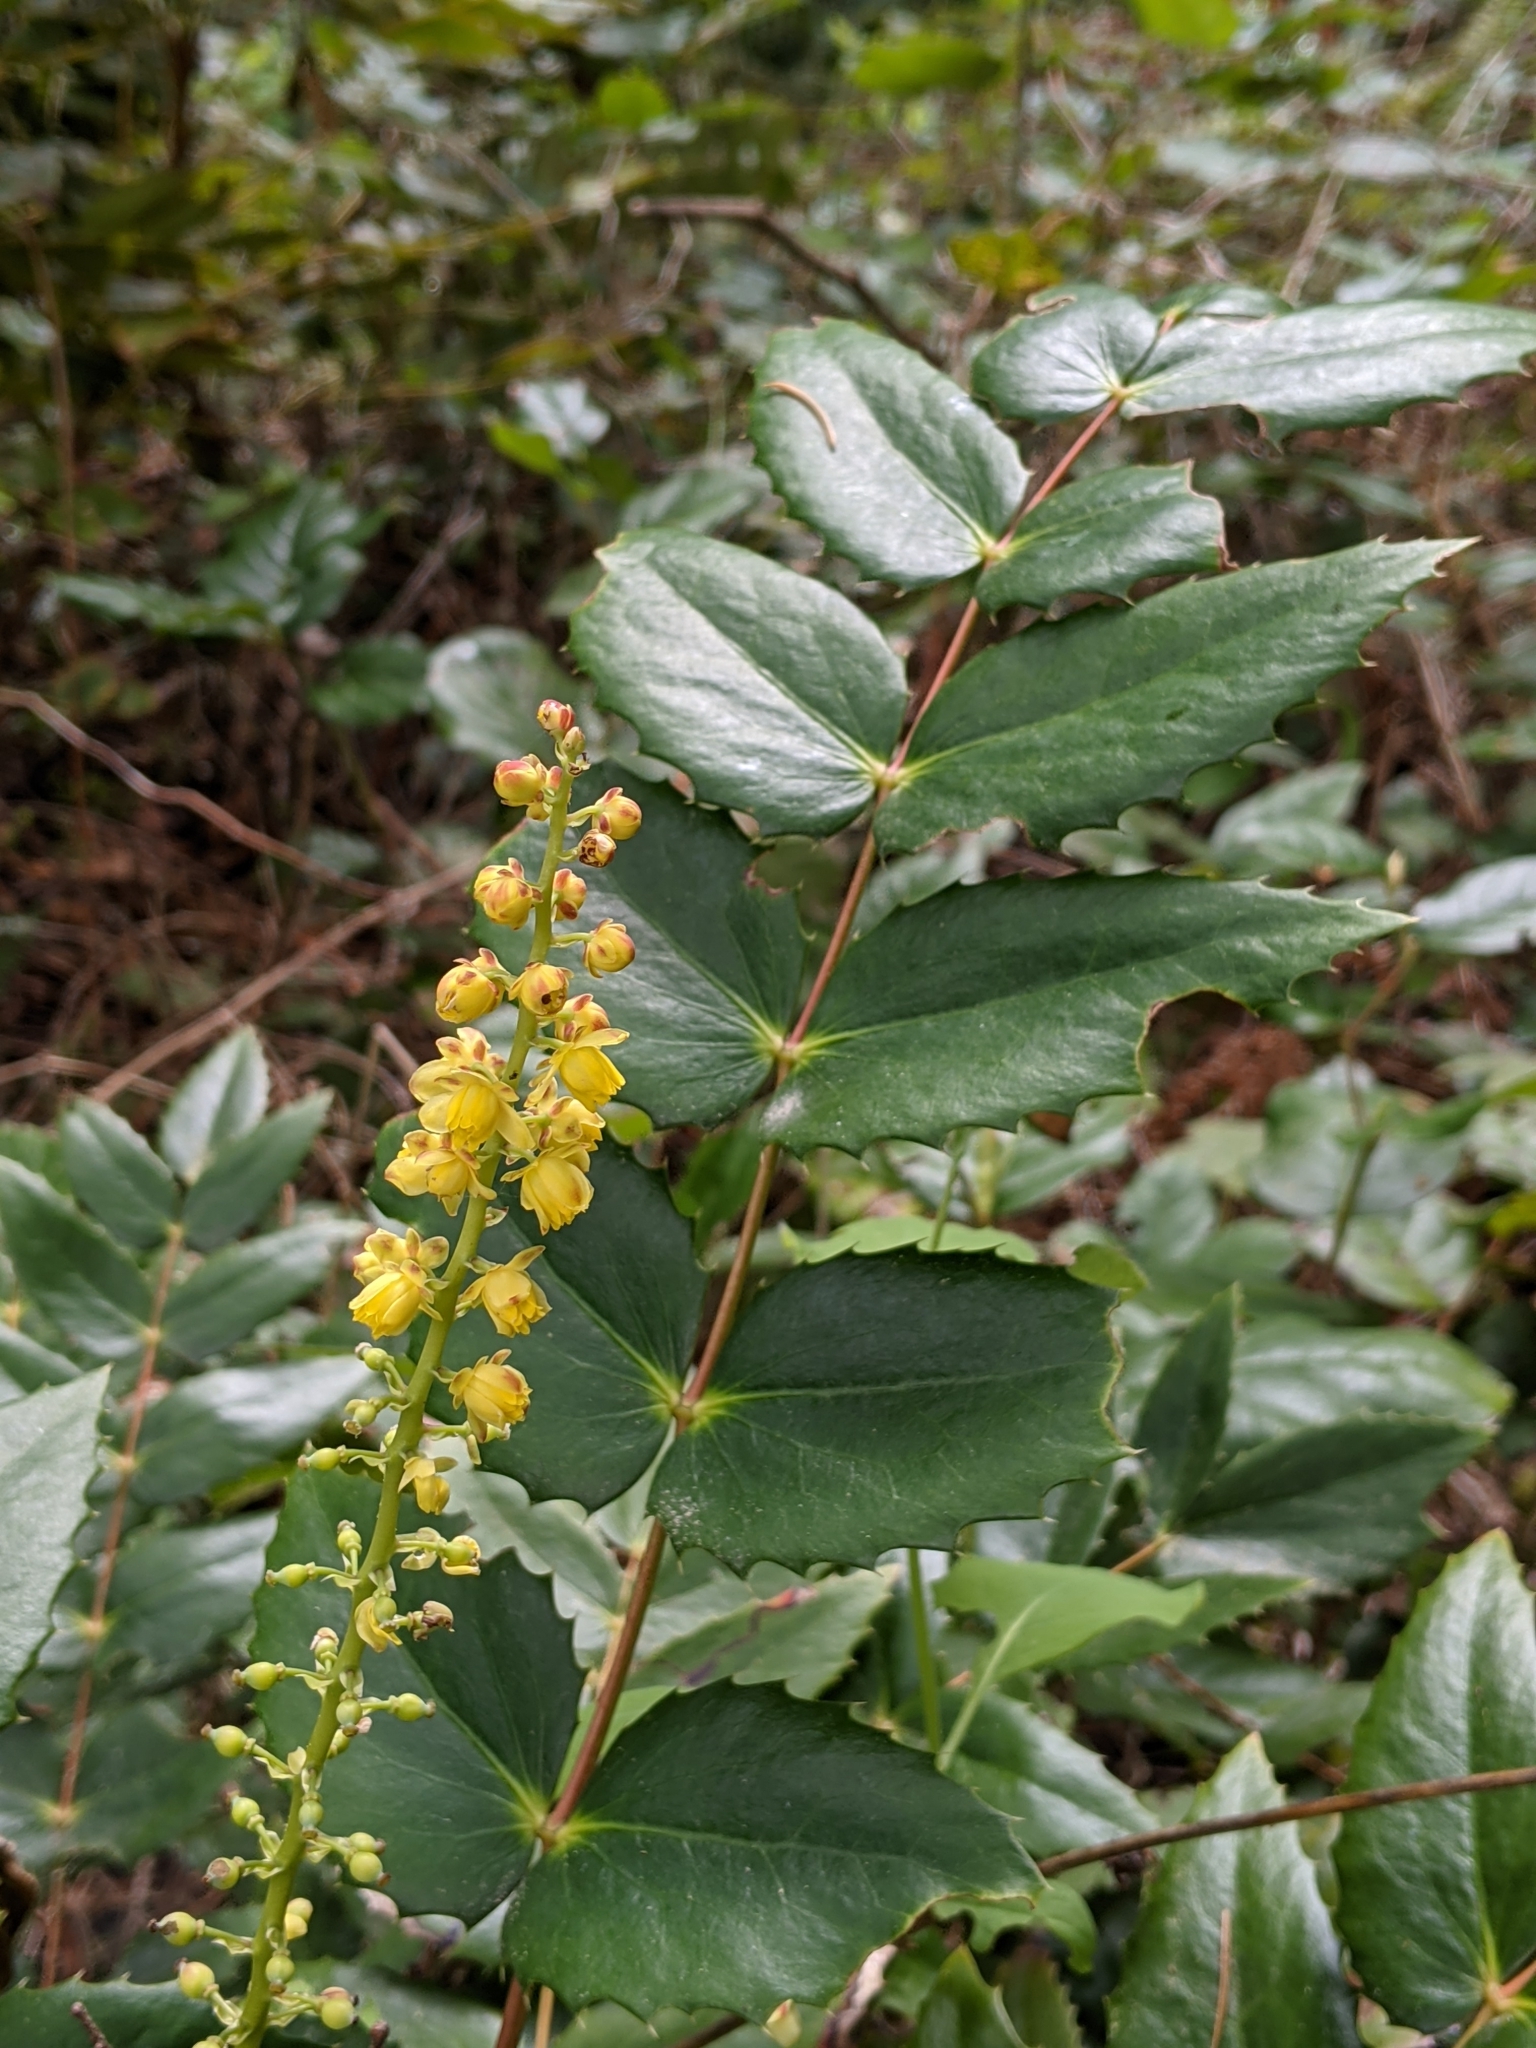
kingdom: Plantae
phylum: Tracheophyta
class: Magnoliopsida
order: Ranunculales
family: Berberidaceae
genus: Mahonia
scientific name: Mahonia nervosa
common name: Cascade oregon-grape
